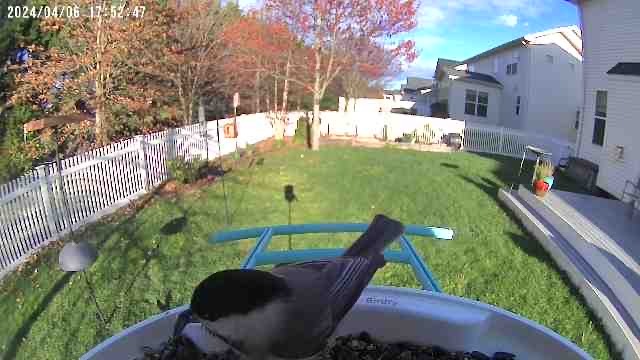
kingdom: Animalia
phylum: Chordata
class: Aves
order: Passeriformes
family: Paridae
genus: Poecile
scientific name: Poecile carolinensis
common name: Carolina chickadee
